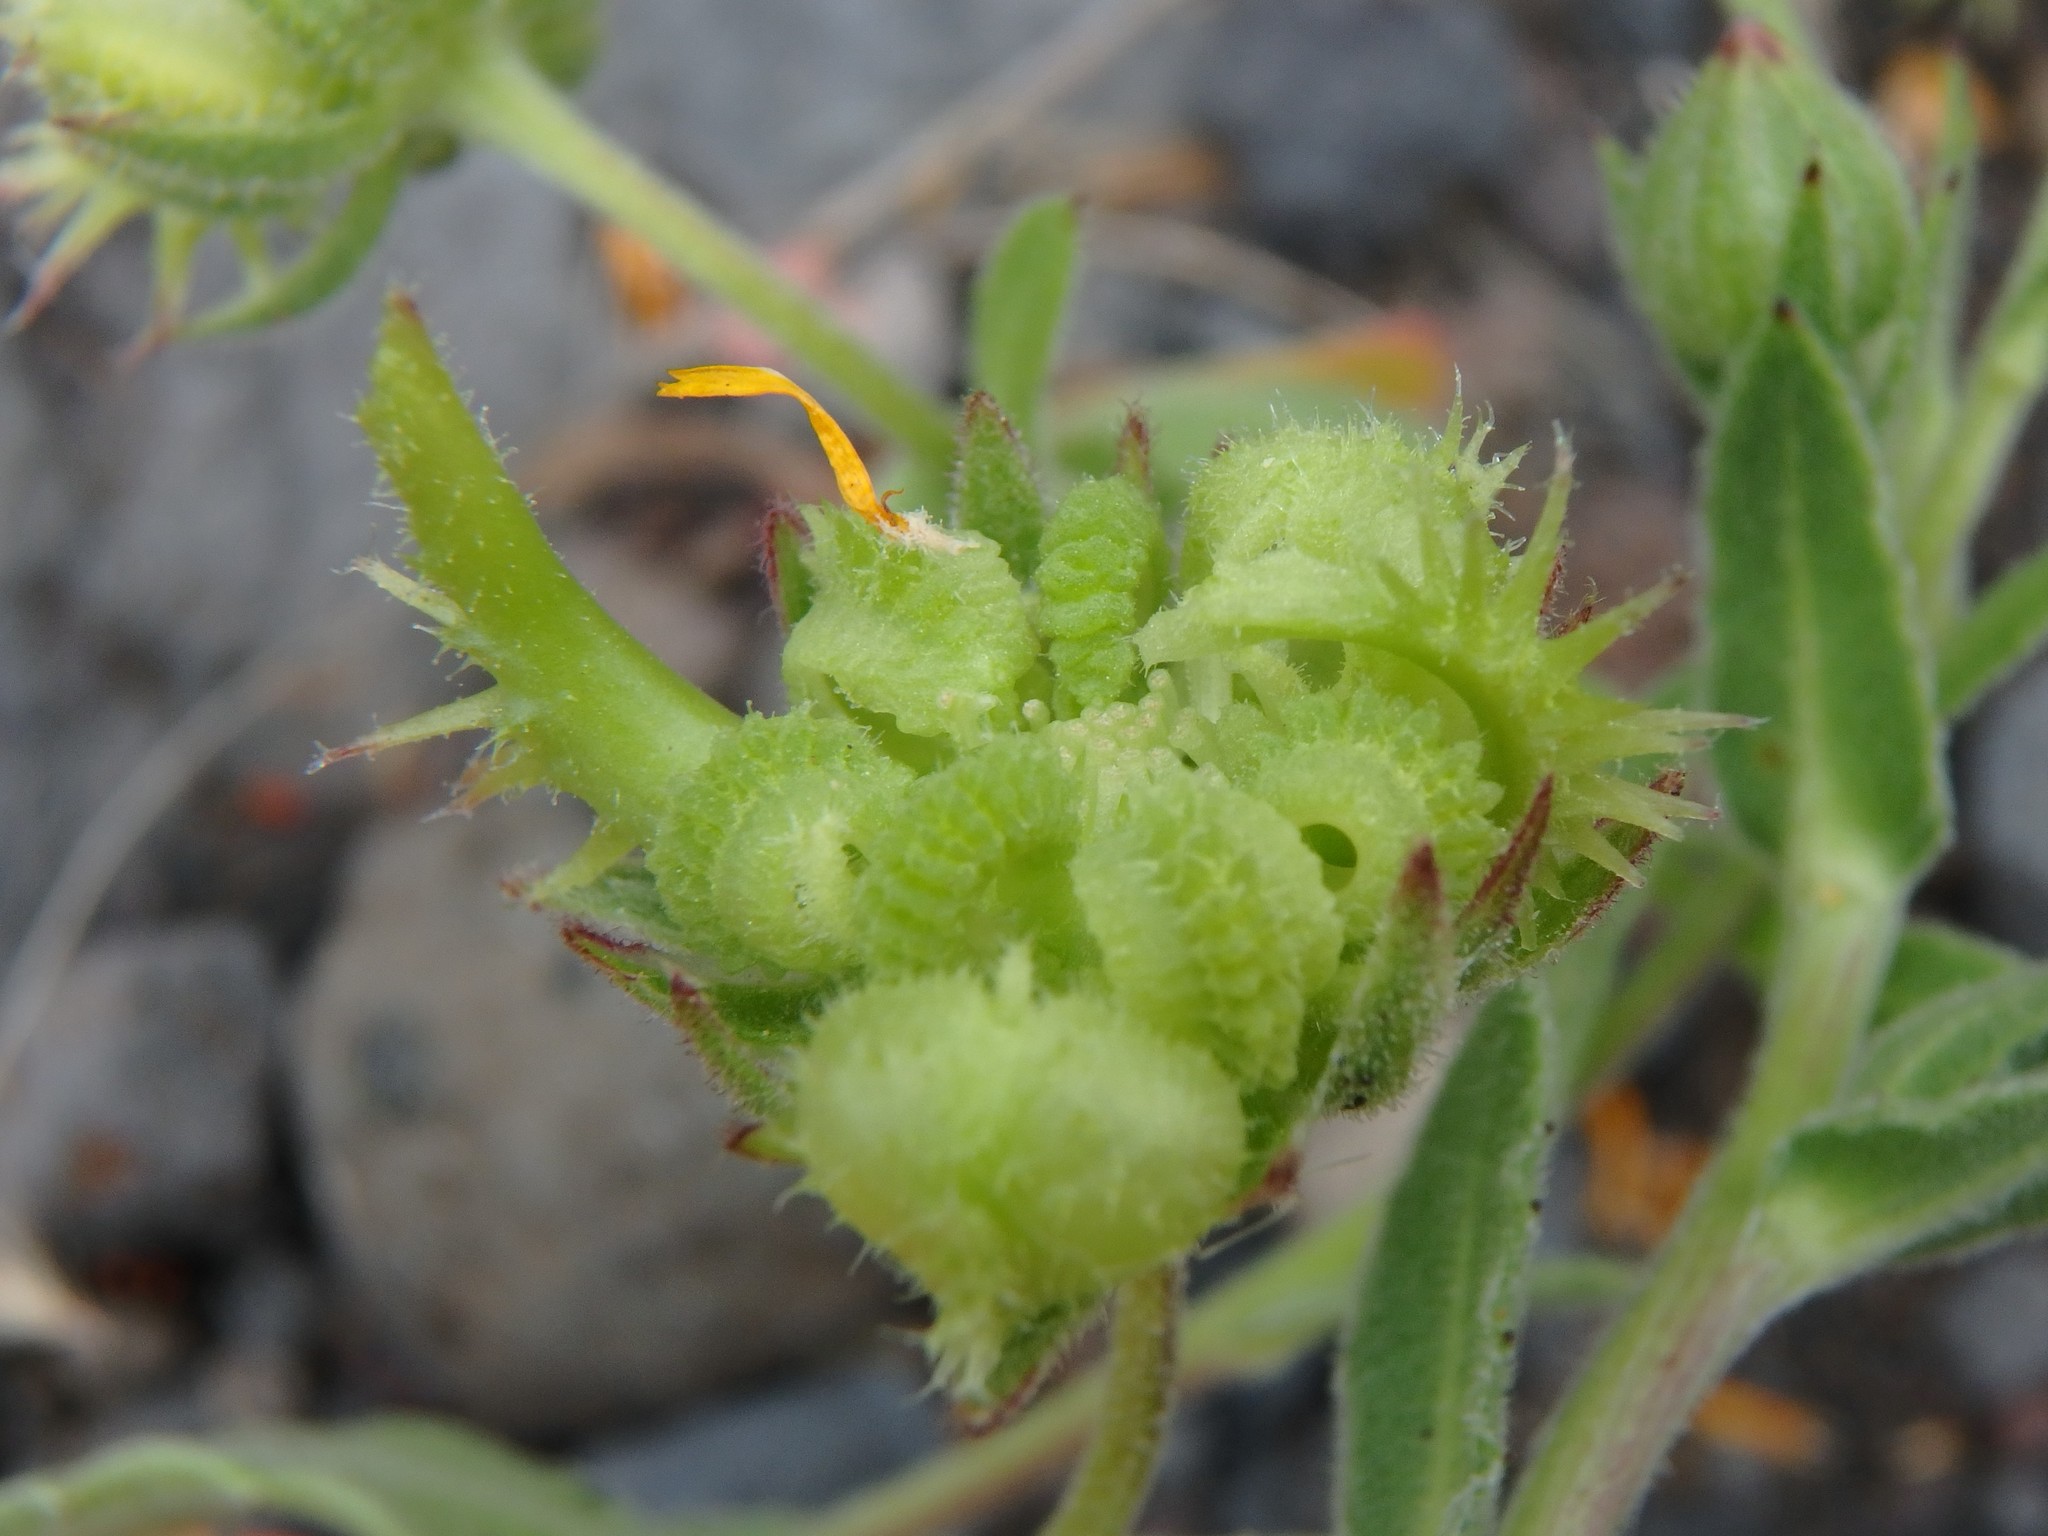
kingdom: Plantae
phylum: Tracheophyta
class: Magnoliopsida
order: Asterales
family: Asteraceae
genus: Calendula
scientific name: Calendula arvensis
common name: Field marigold
